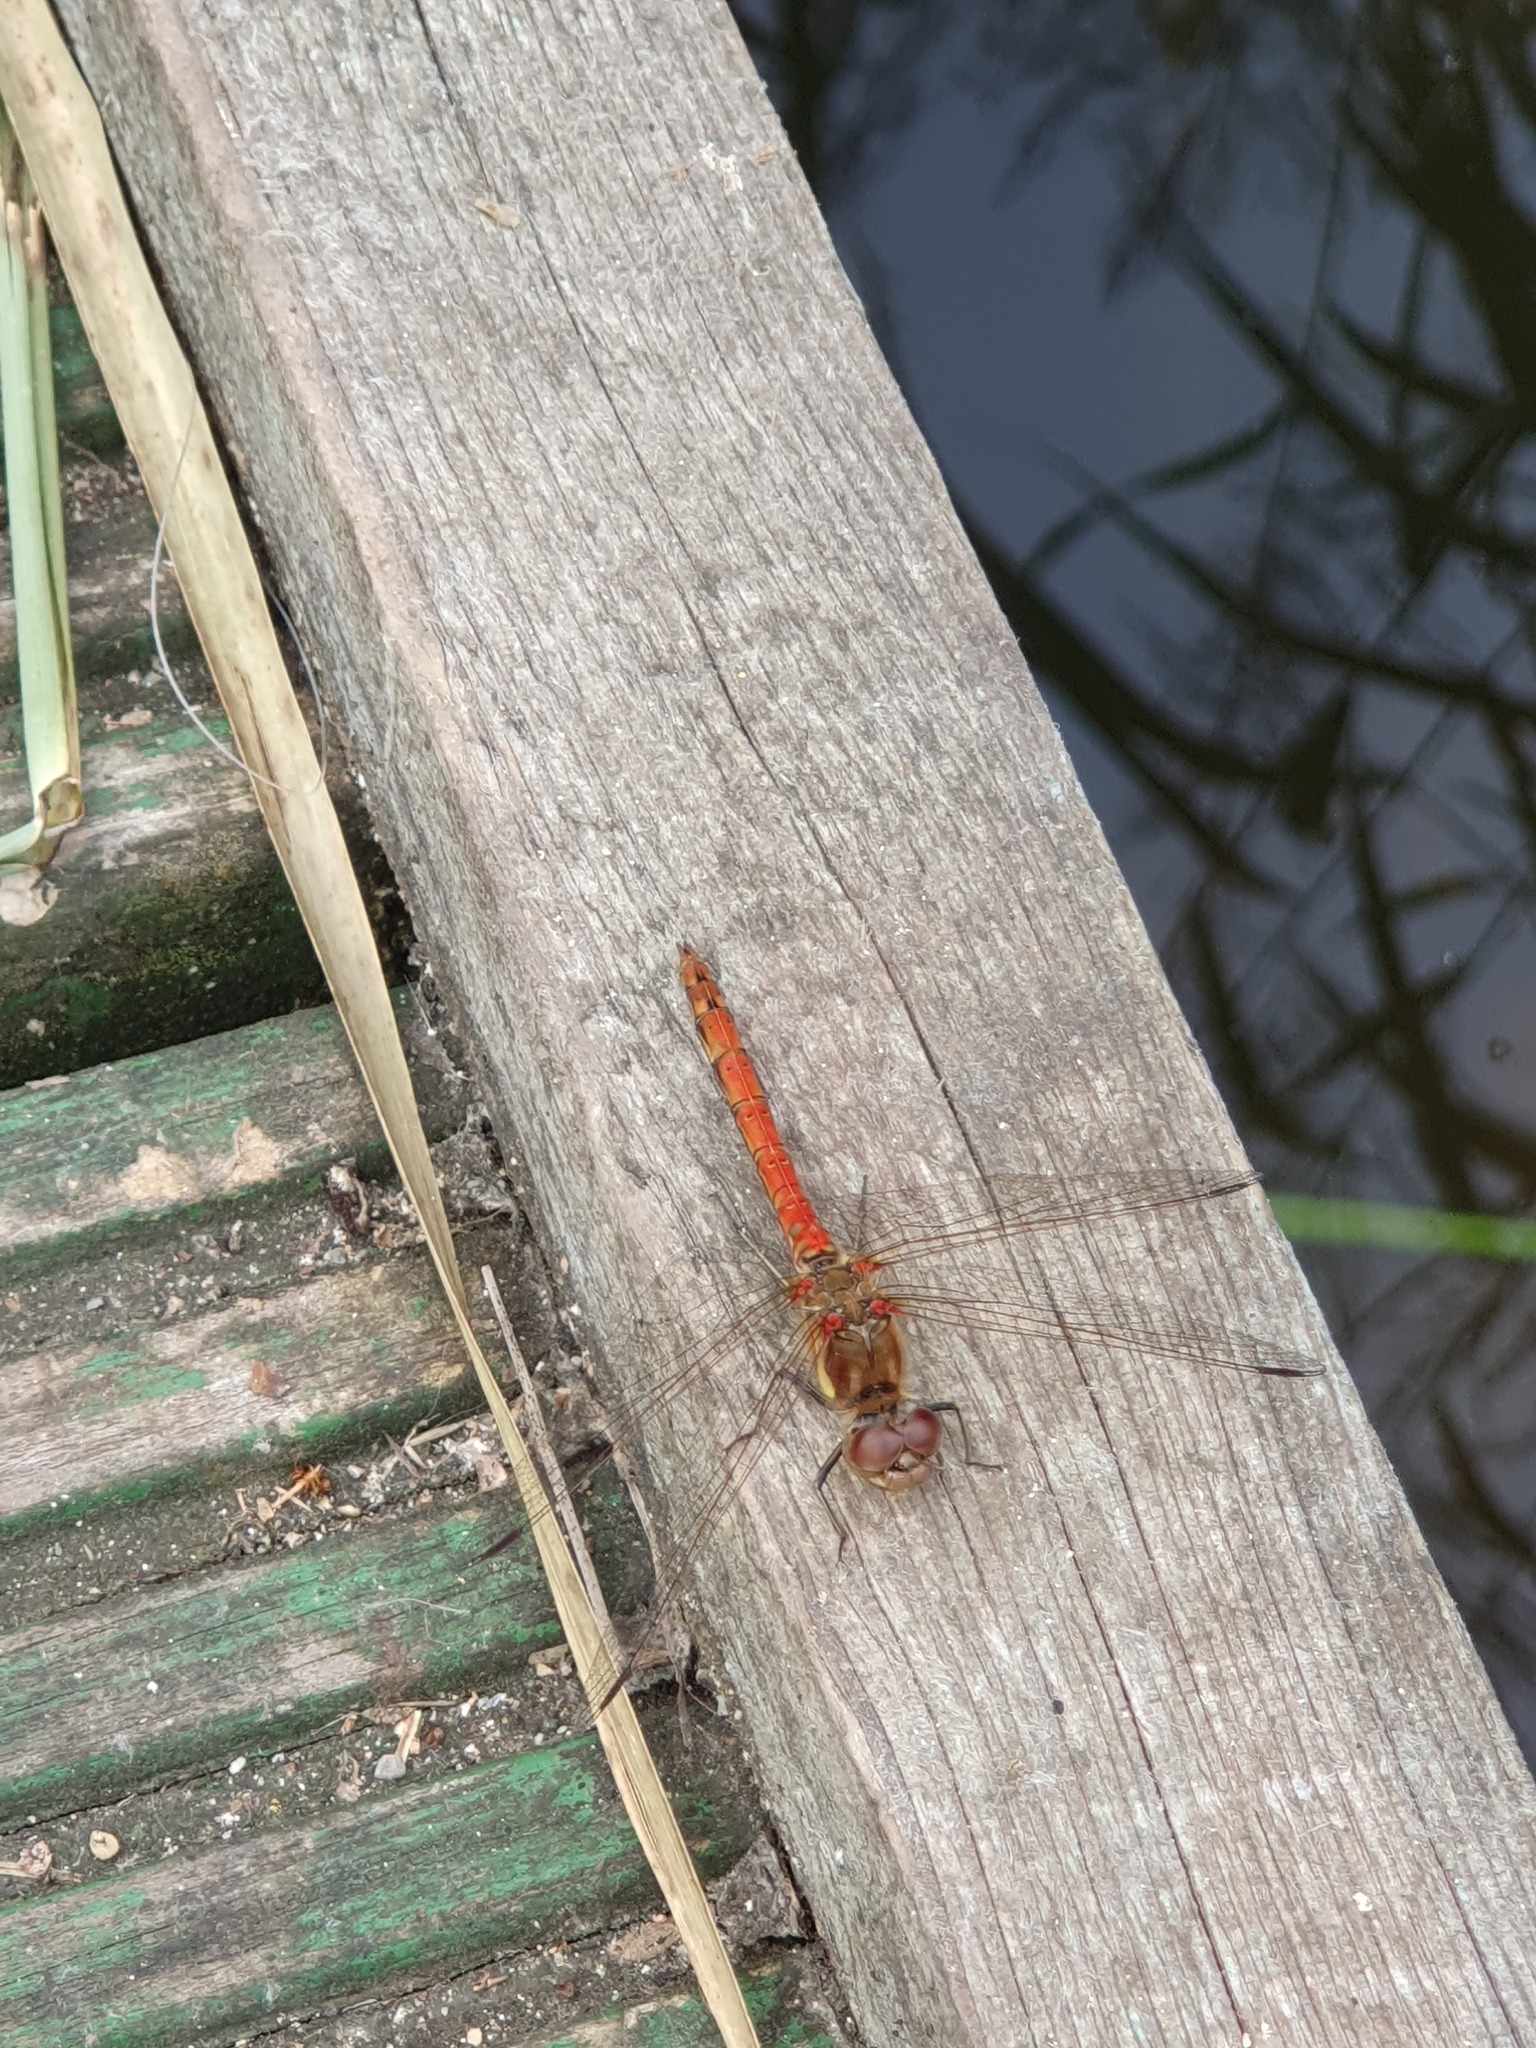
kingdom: Animalia
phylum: Arthropoda
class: Insecta
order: Odonata
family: Libellulidae
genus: Sympetrum
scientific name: Sympetrum striolatum
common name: Common darter
